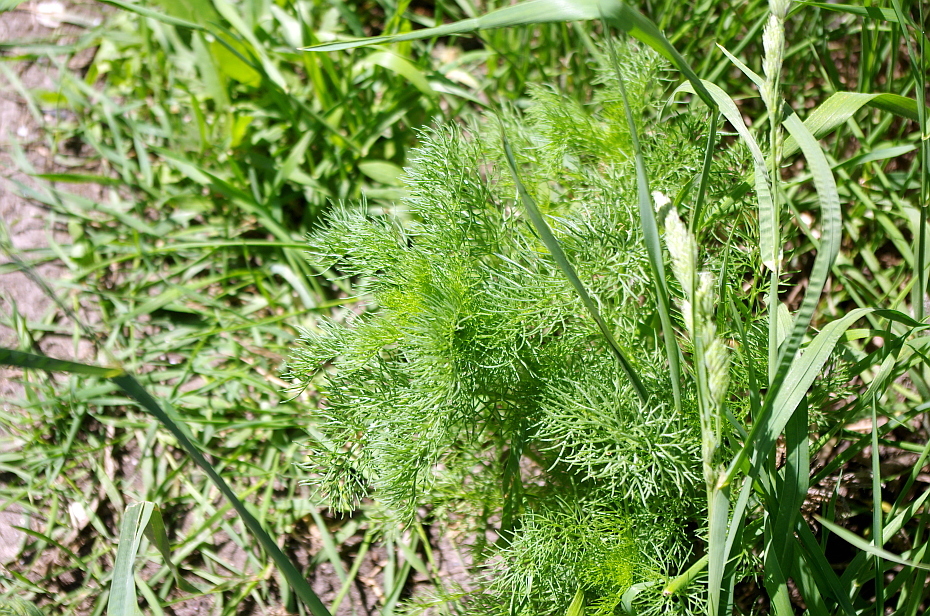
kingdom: Plantae
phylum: Tracheophyta
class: Magnoliopsida
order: Asterales
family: Asteraceae
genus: Tripleurospermum
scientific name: Tripleurospermum inodorum
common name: Scentless mayweed
